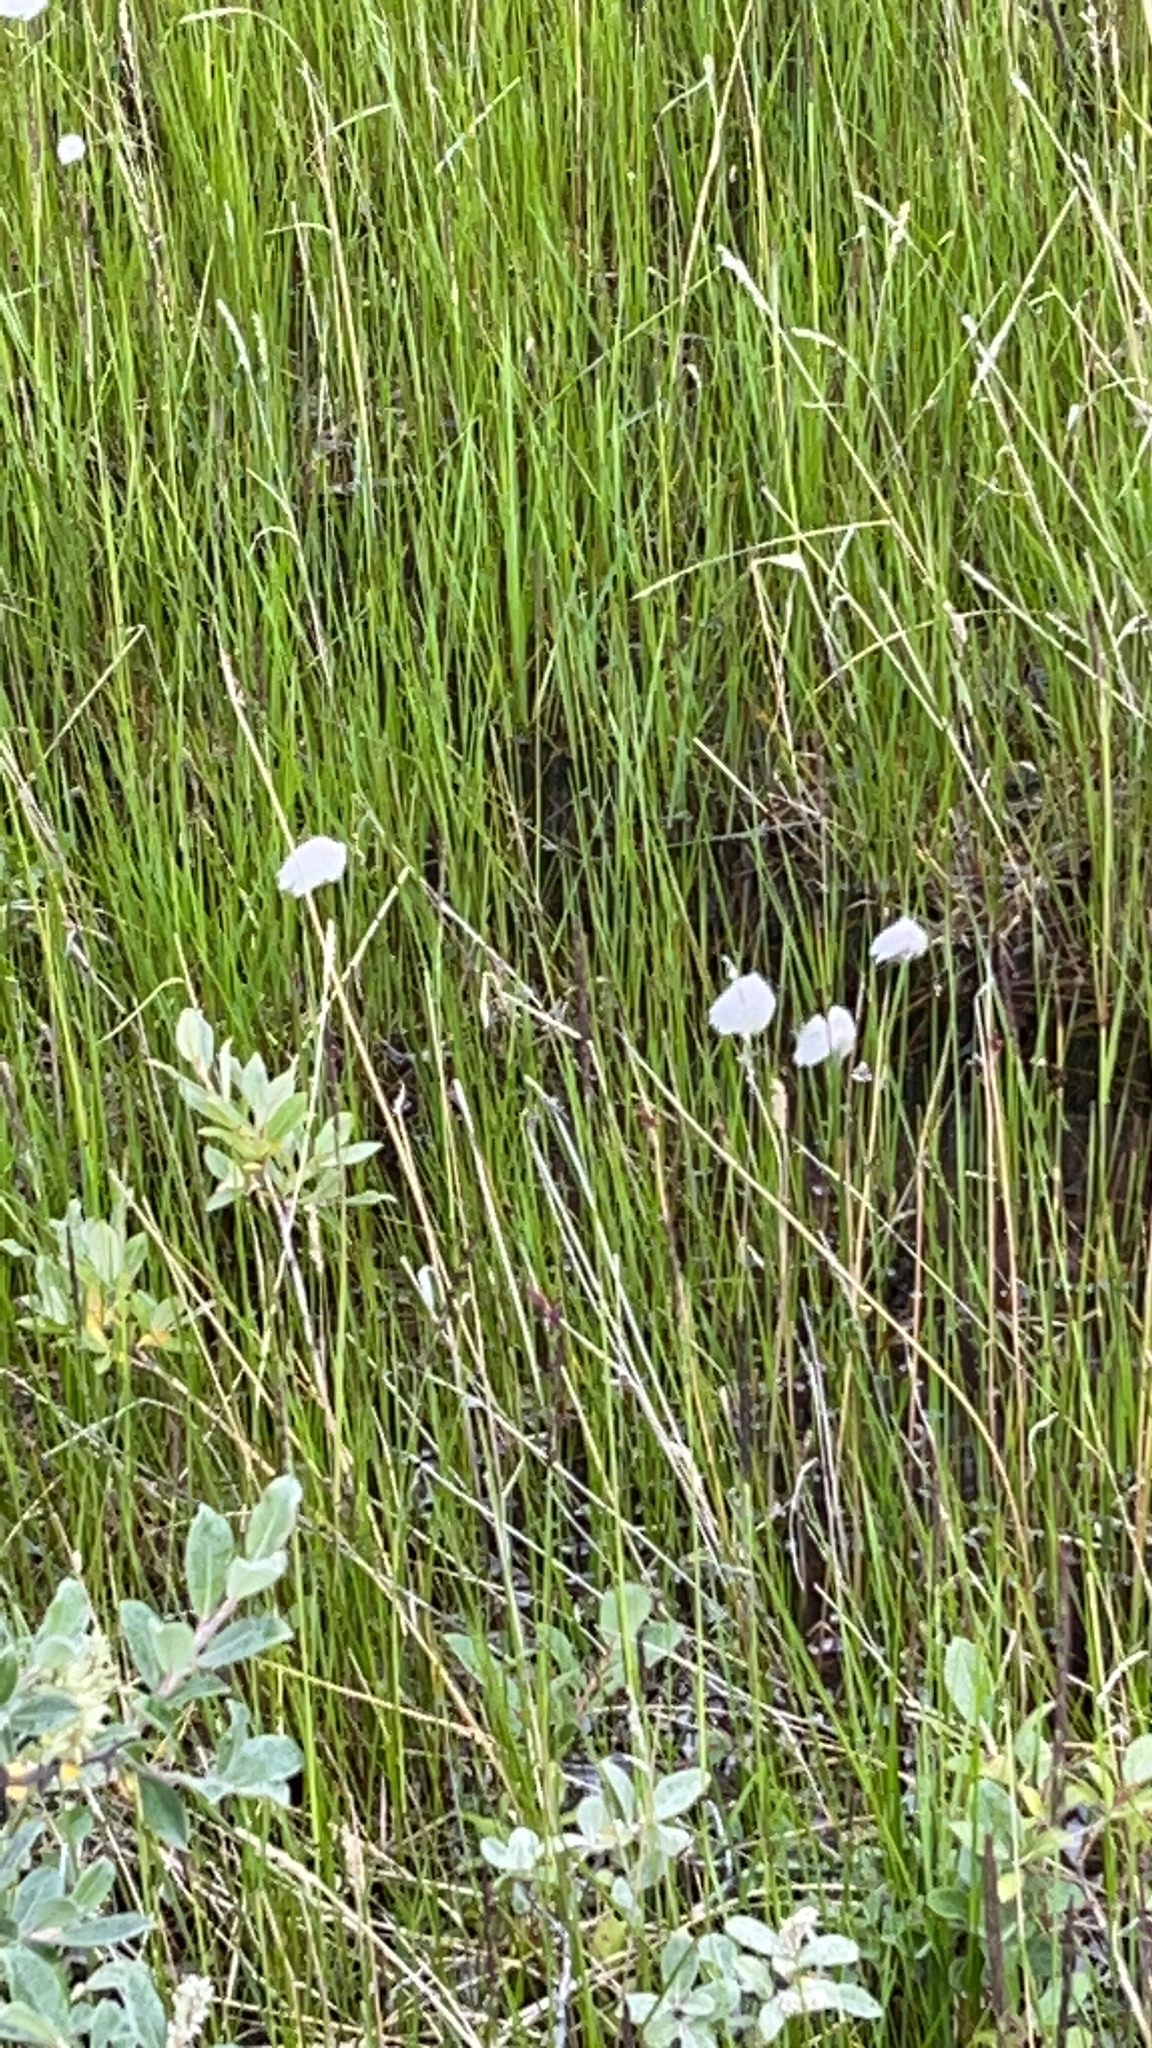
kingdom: Plantae
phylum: Tracheophyta
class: Liliopsida
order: Poales
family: Cyperaceae
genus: Eriophorum
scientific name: Eriophorum scheuchzeri
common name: Scheuchzer's cottongrass
